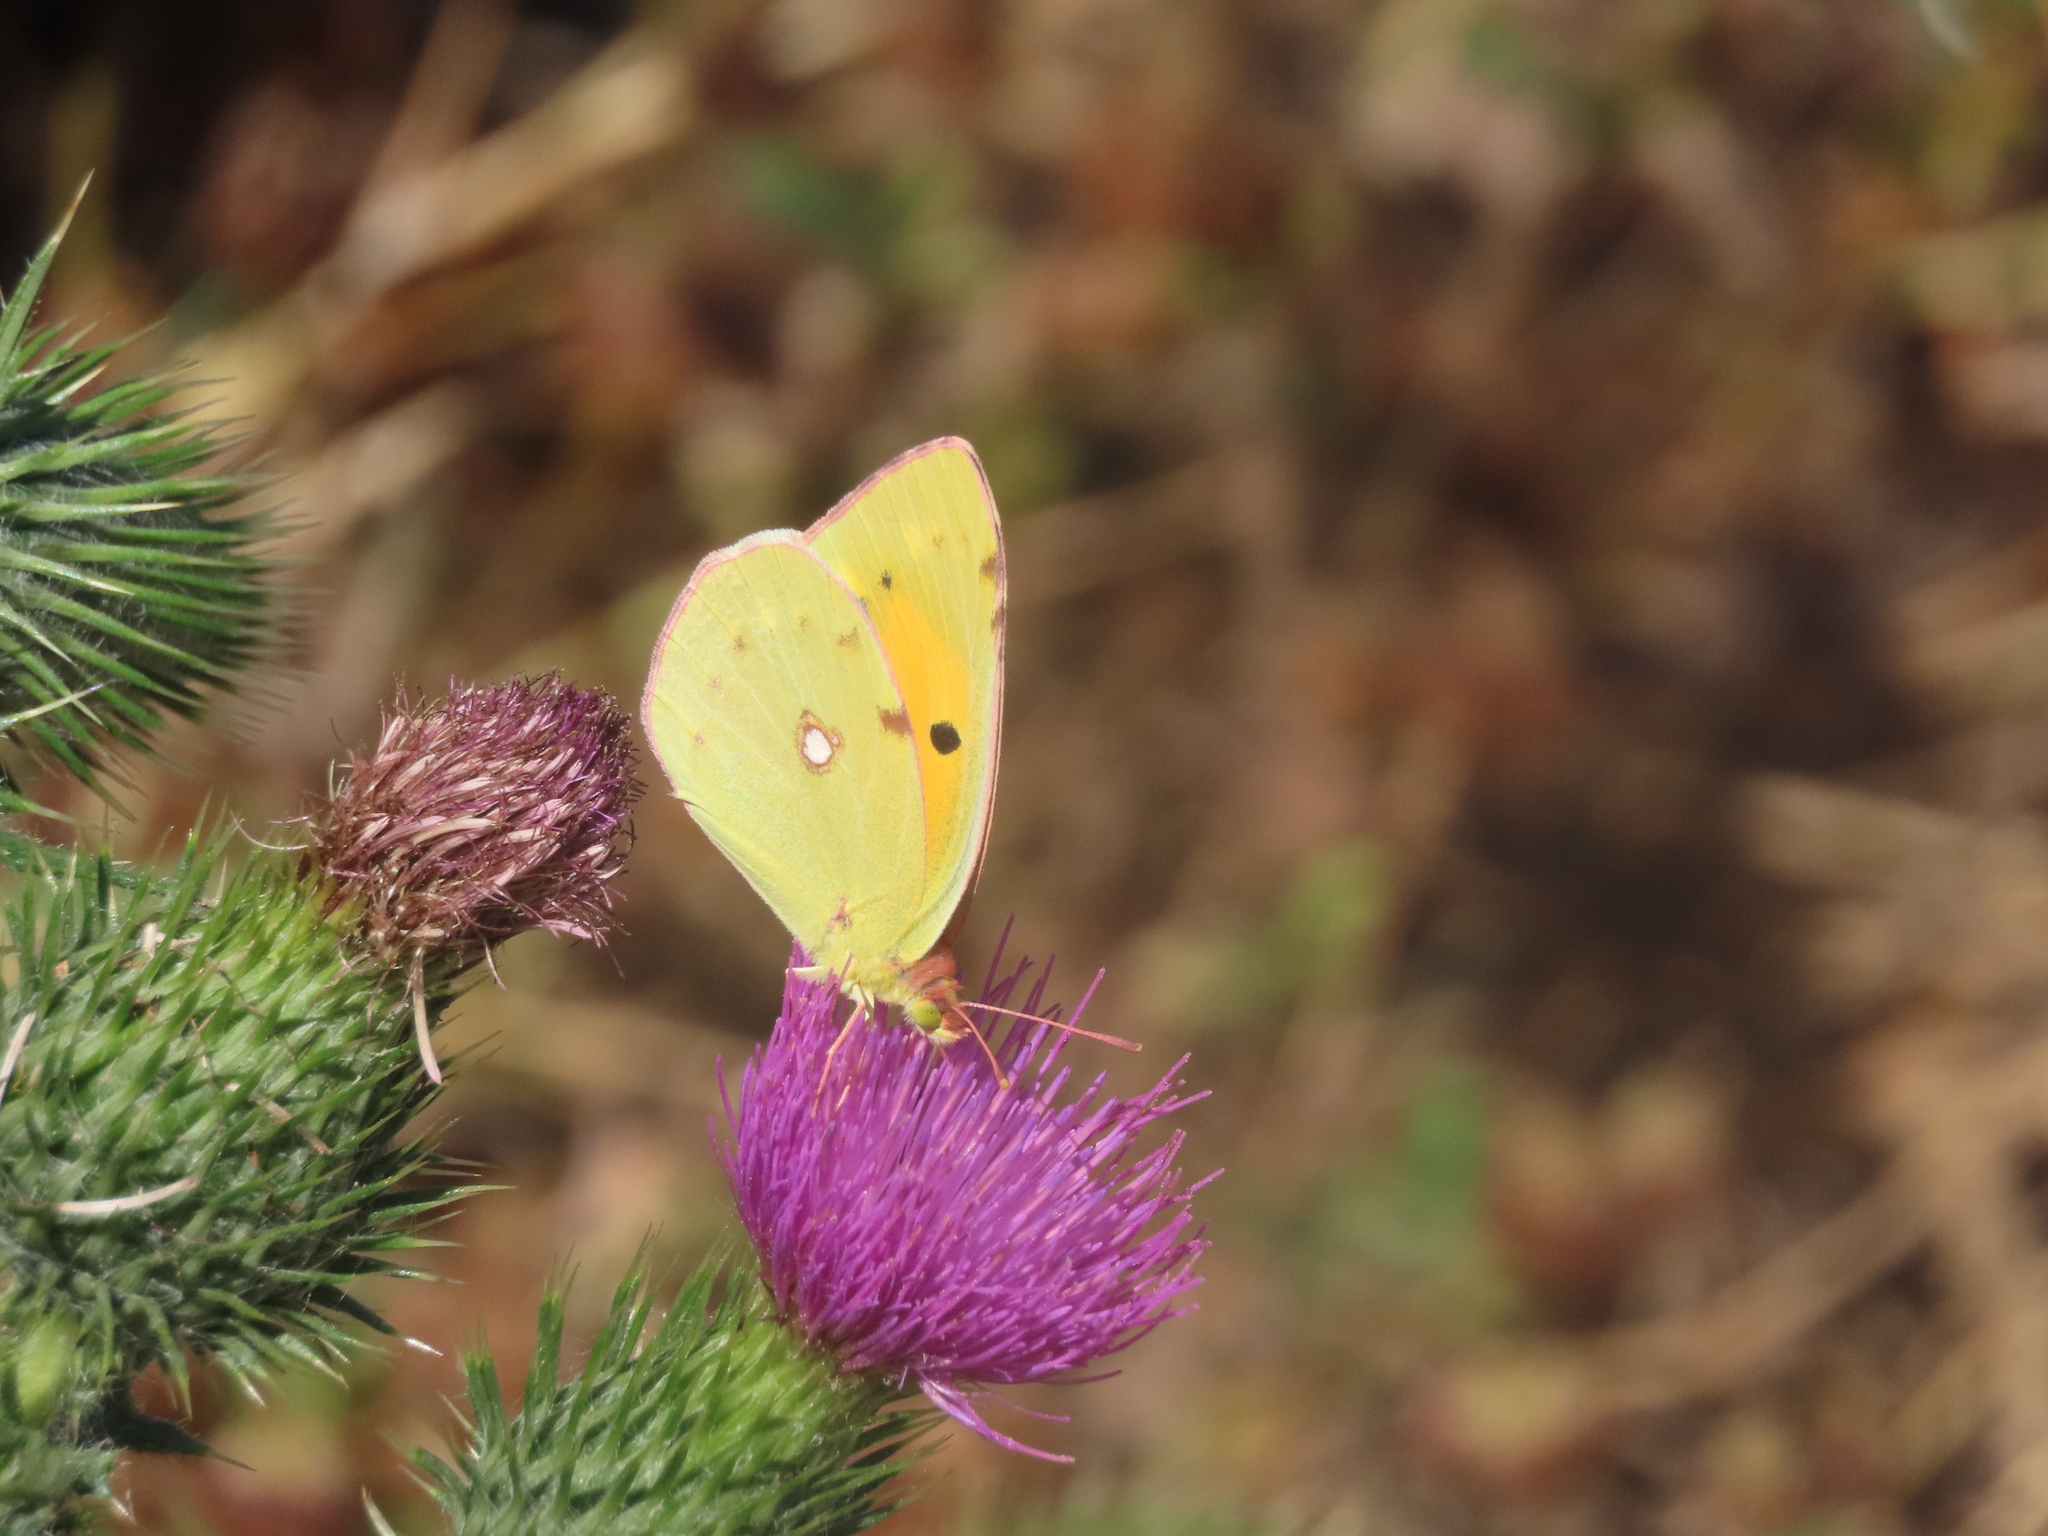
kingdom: Animalia
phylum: Arthropoda
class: Insecta
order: Lepidoptera
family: Pieridae
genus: Colias
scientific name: Colias croceus
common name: Clouded yellow
